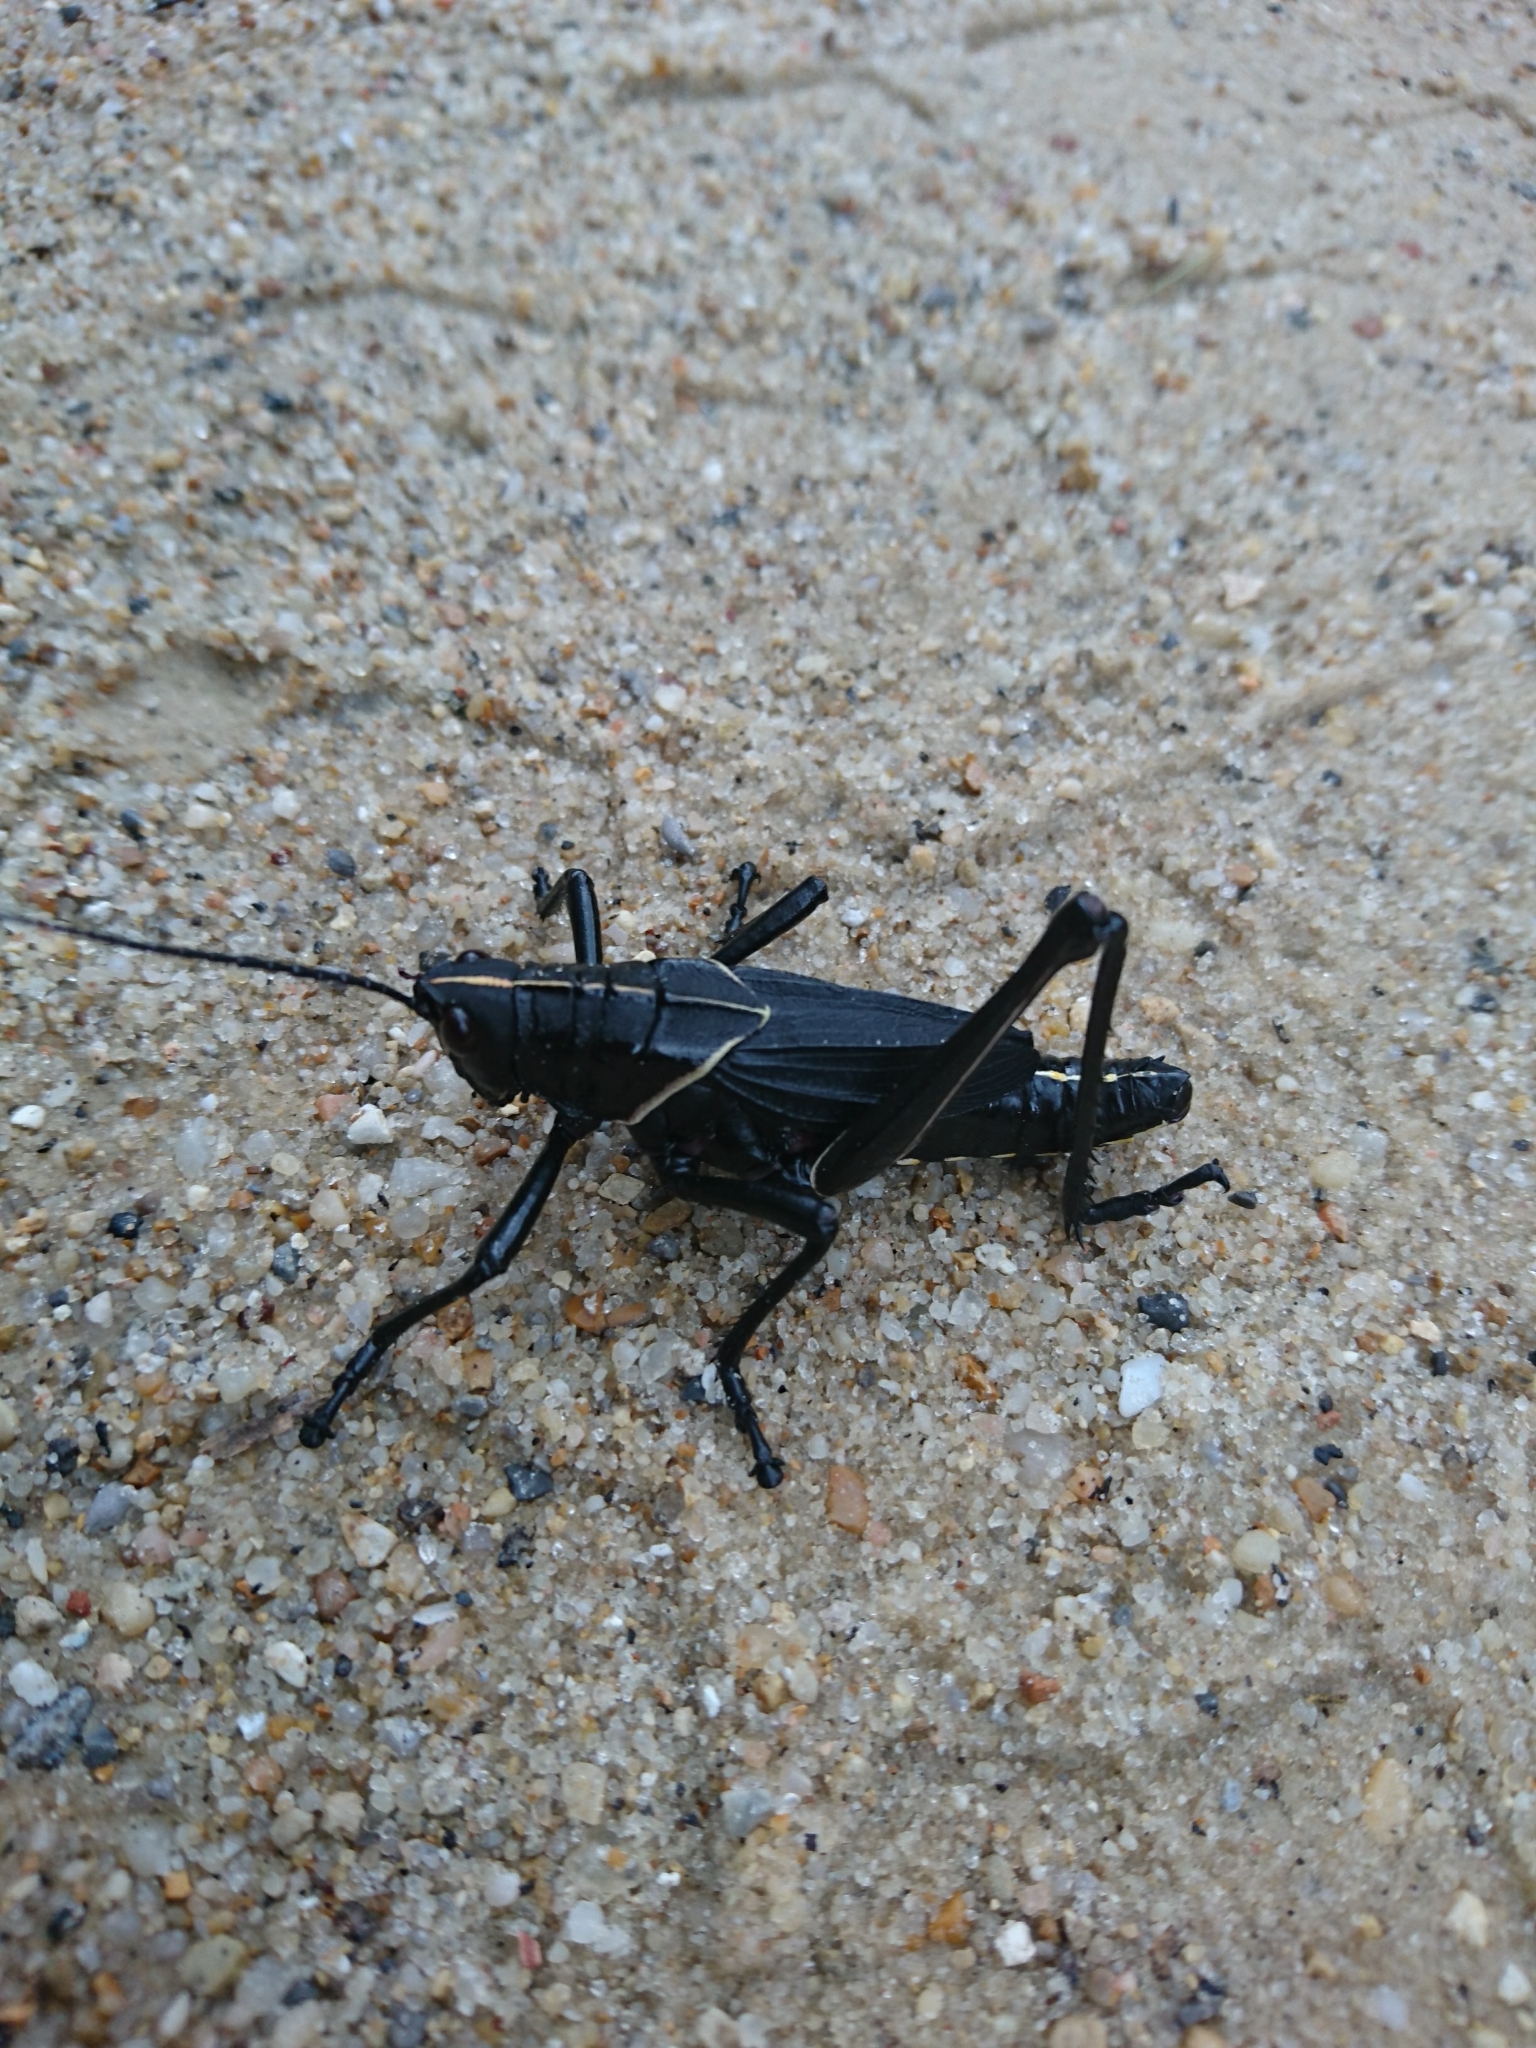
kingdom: Animalia
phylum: Arthropoda
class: Insecta
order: Orthoptera
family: Romaleidae
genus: Romalea
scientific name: Romalea microptera
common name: Eastern lubber grasshopper
